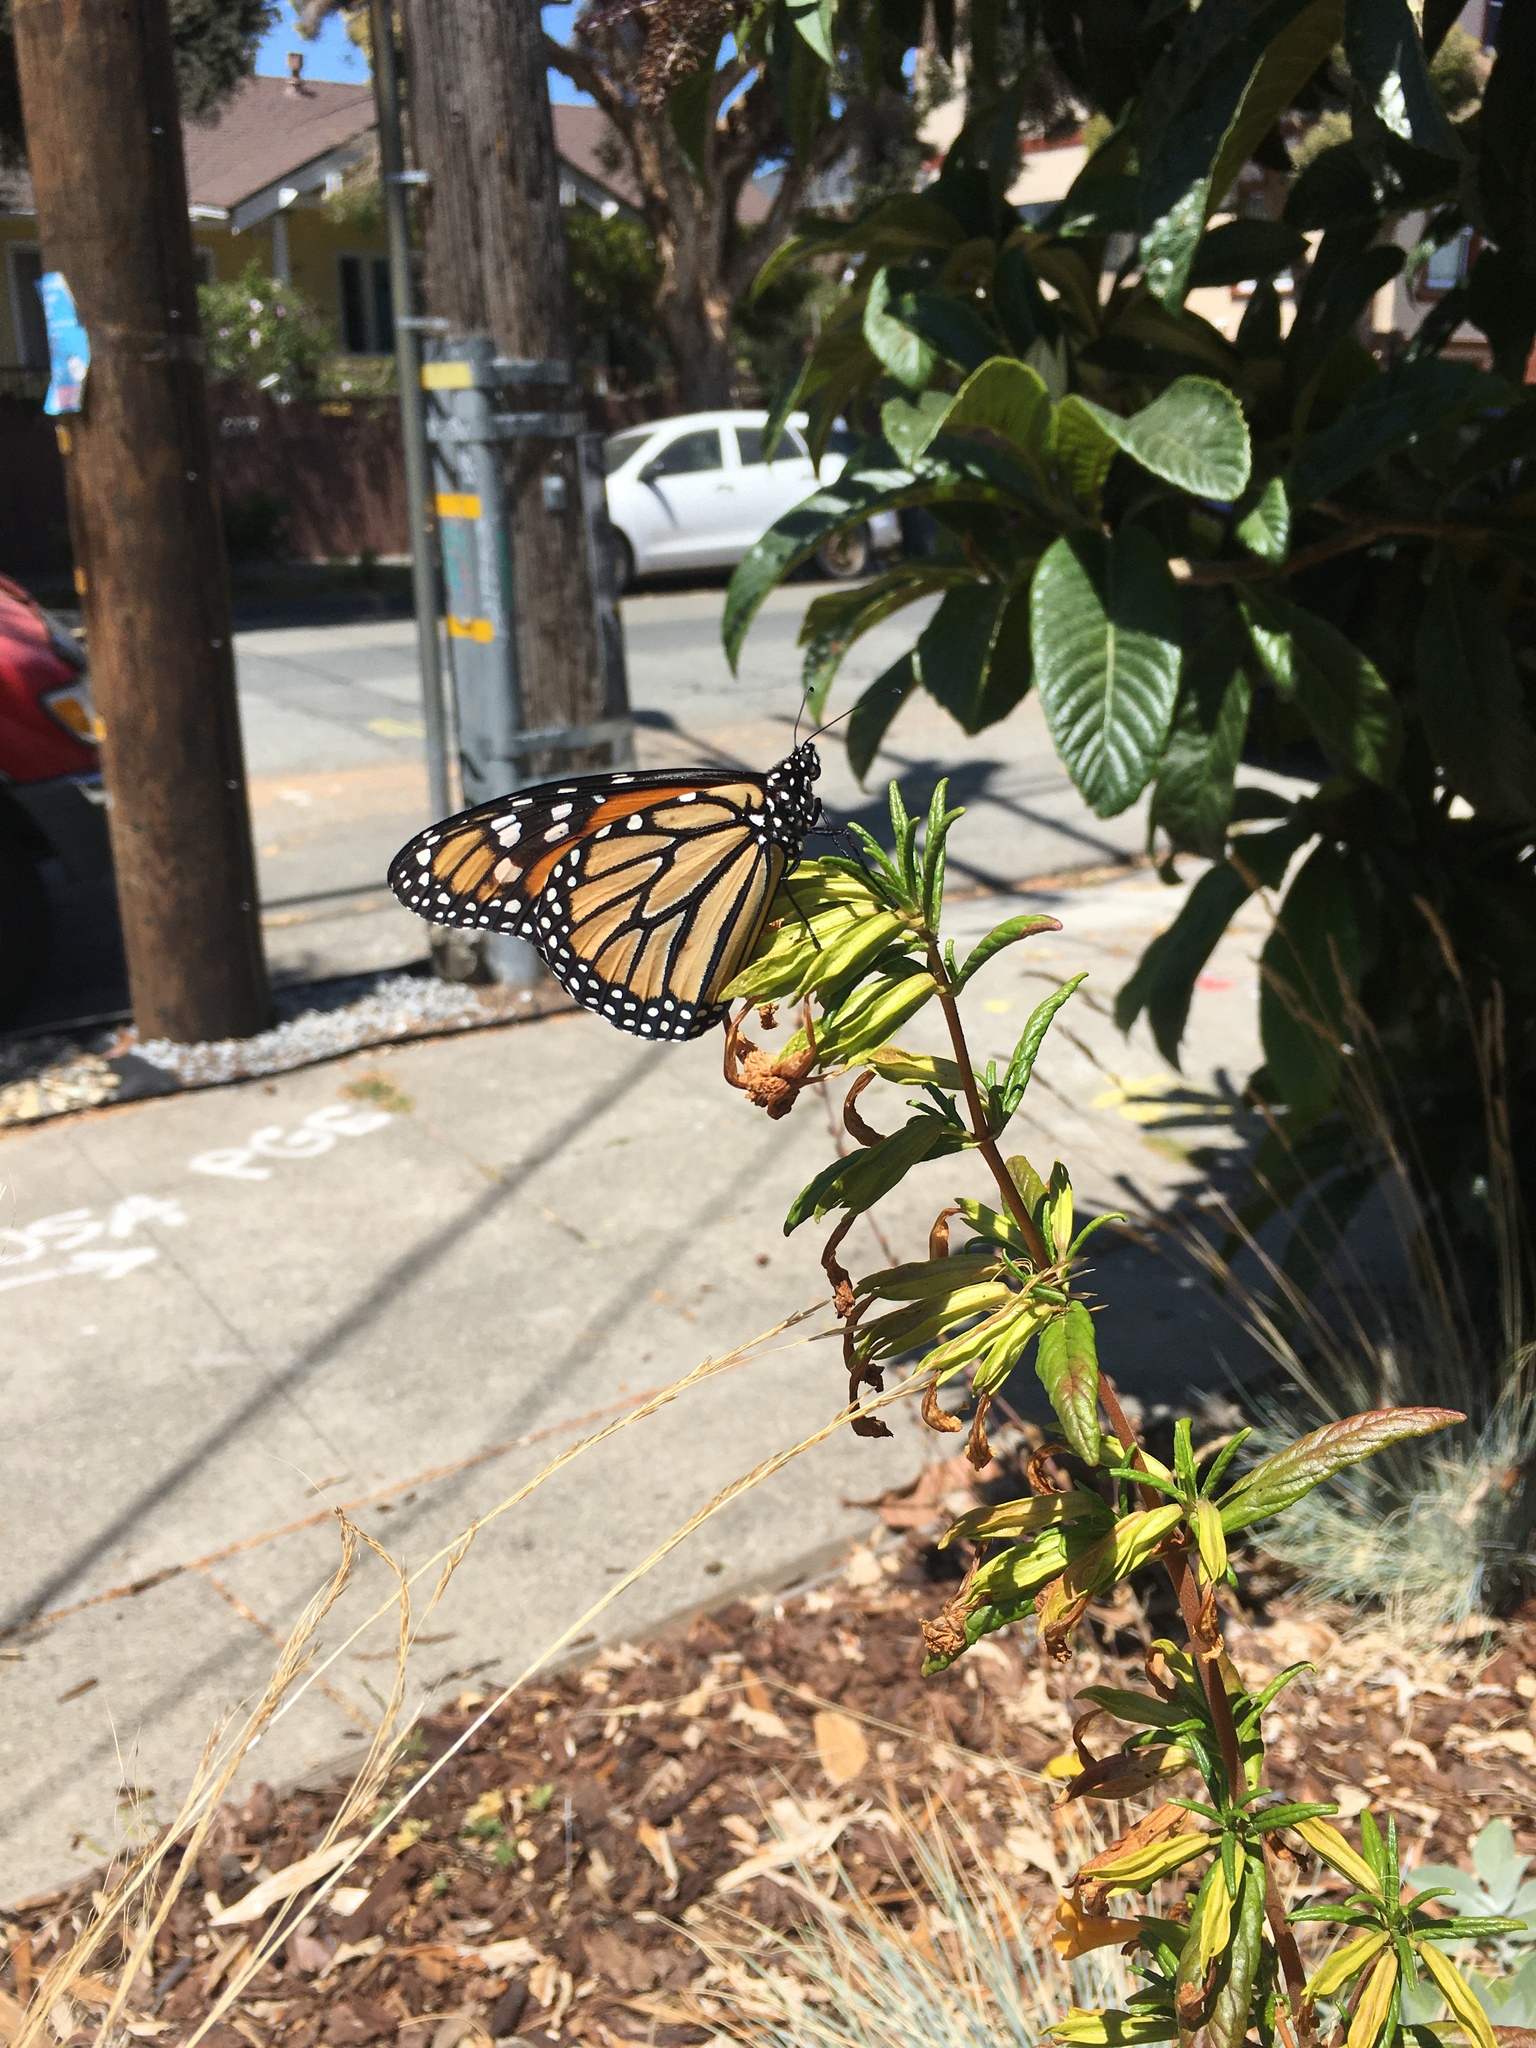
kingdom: Animalia
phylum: Arthropoda
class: Insecta
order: Lepidoptera
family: Nymphalidae
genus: Danaus
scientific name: Danaus plexippus
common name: Monarch
